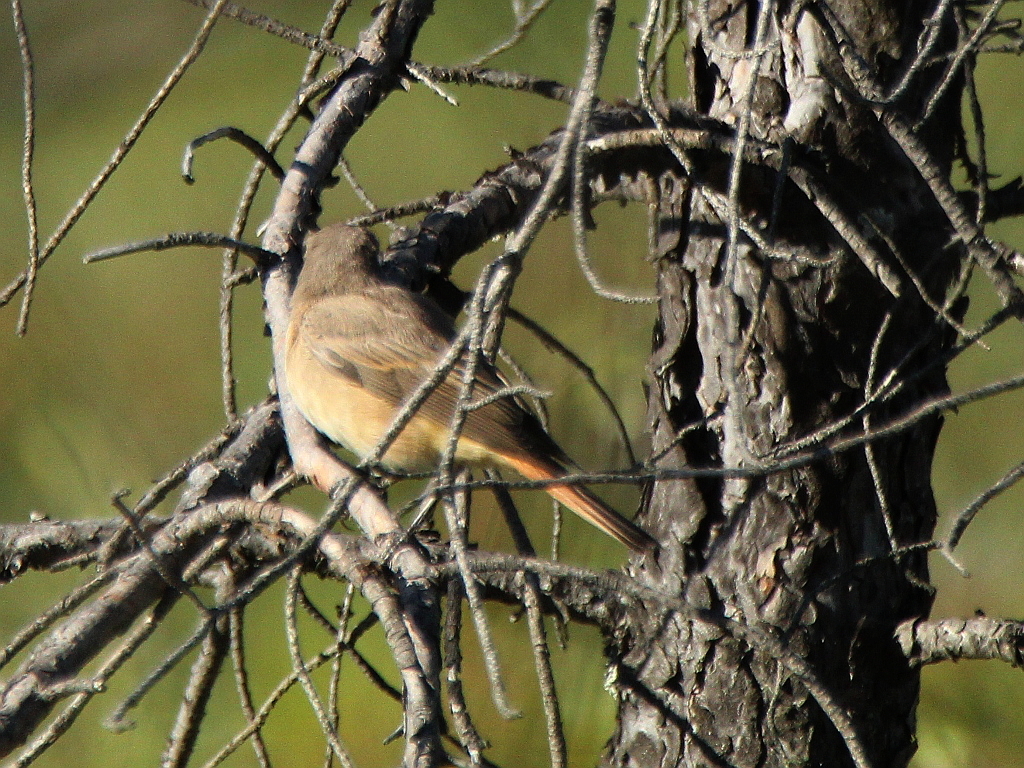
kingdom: Animalia
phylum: Chordata
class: Aves
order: Passeriformes
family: Muscicapidae
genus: Phoenicurus
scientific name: Phoenicurus phoenicurus
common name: Common redstart
